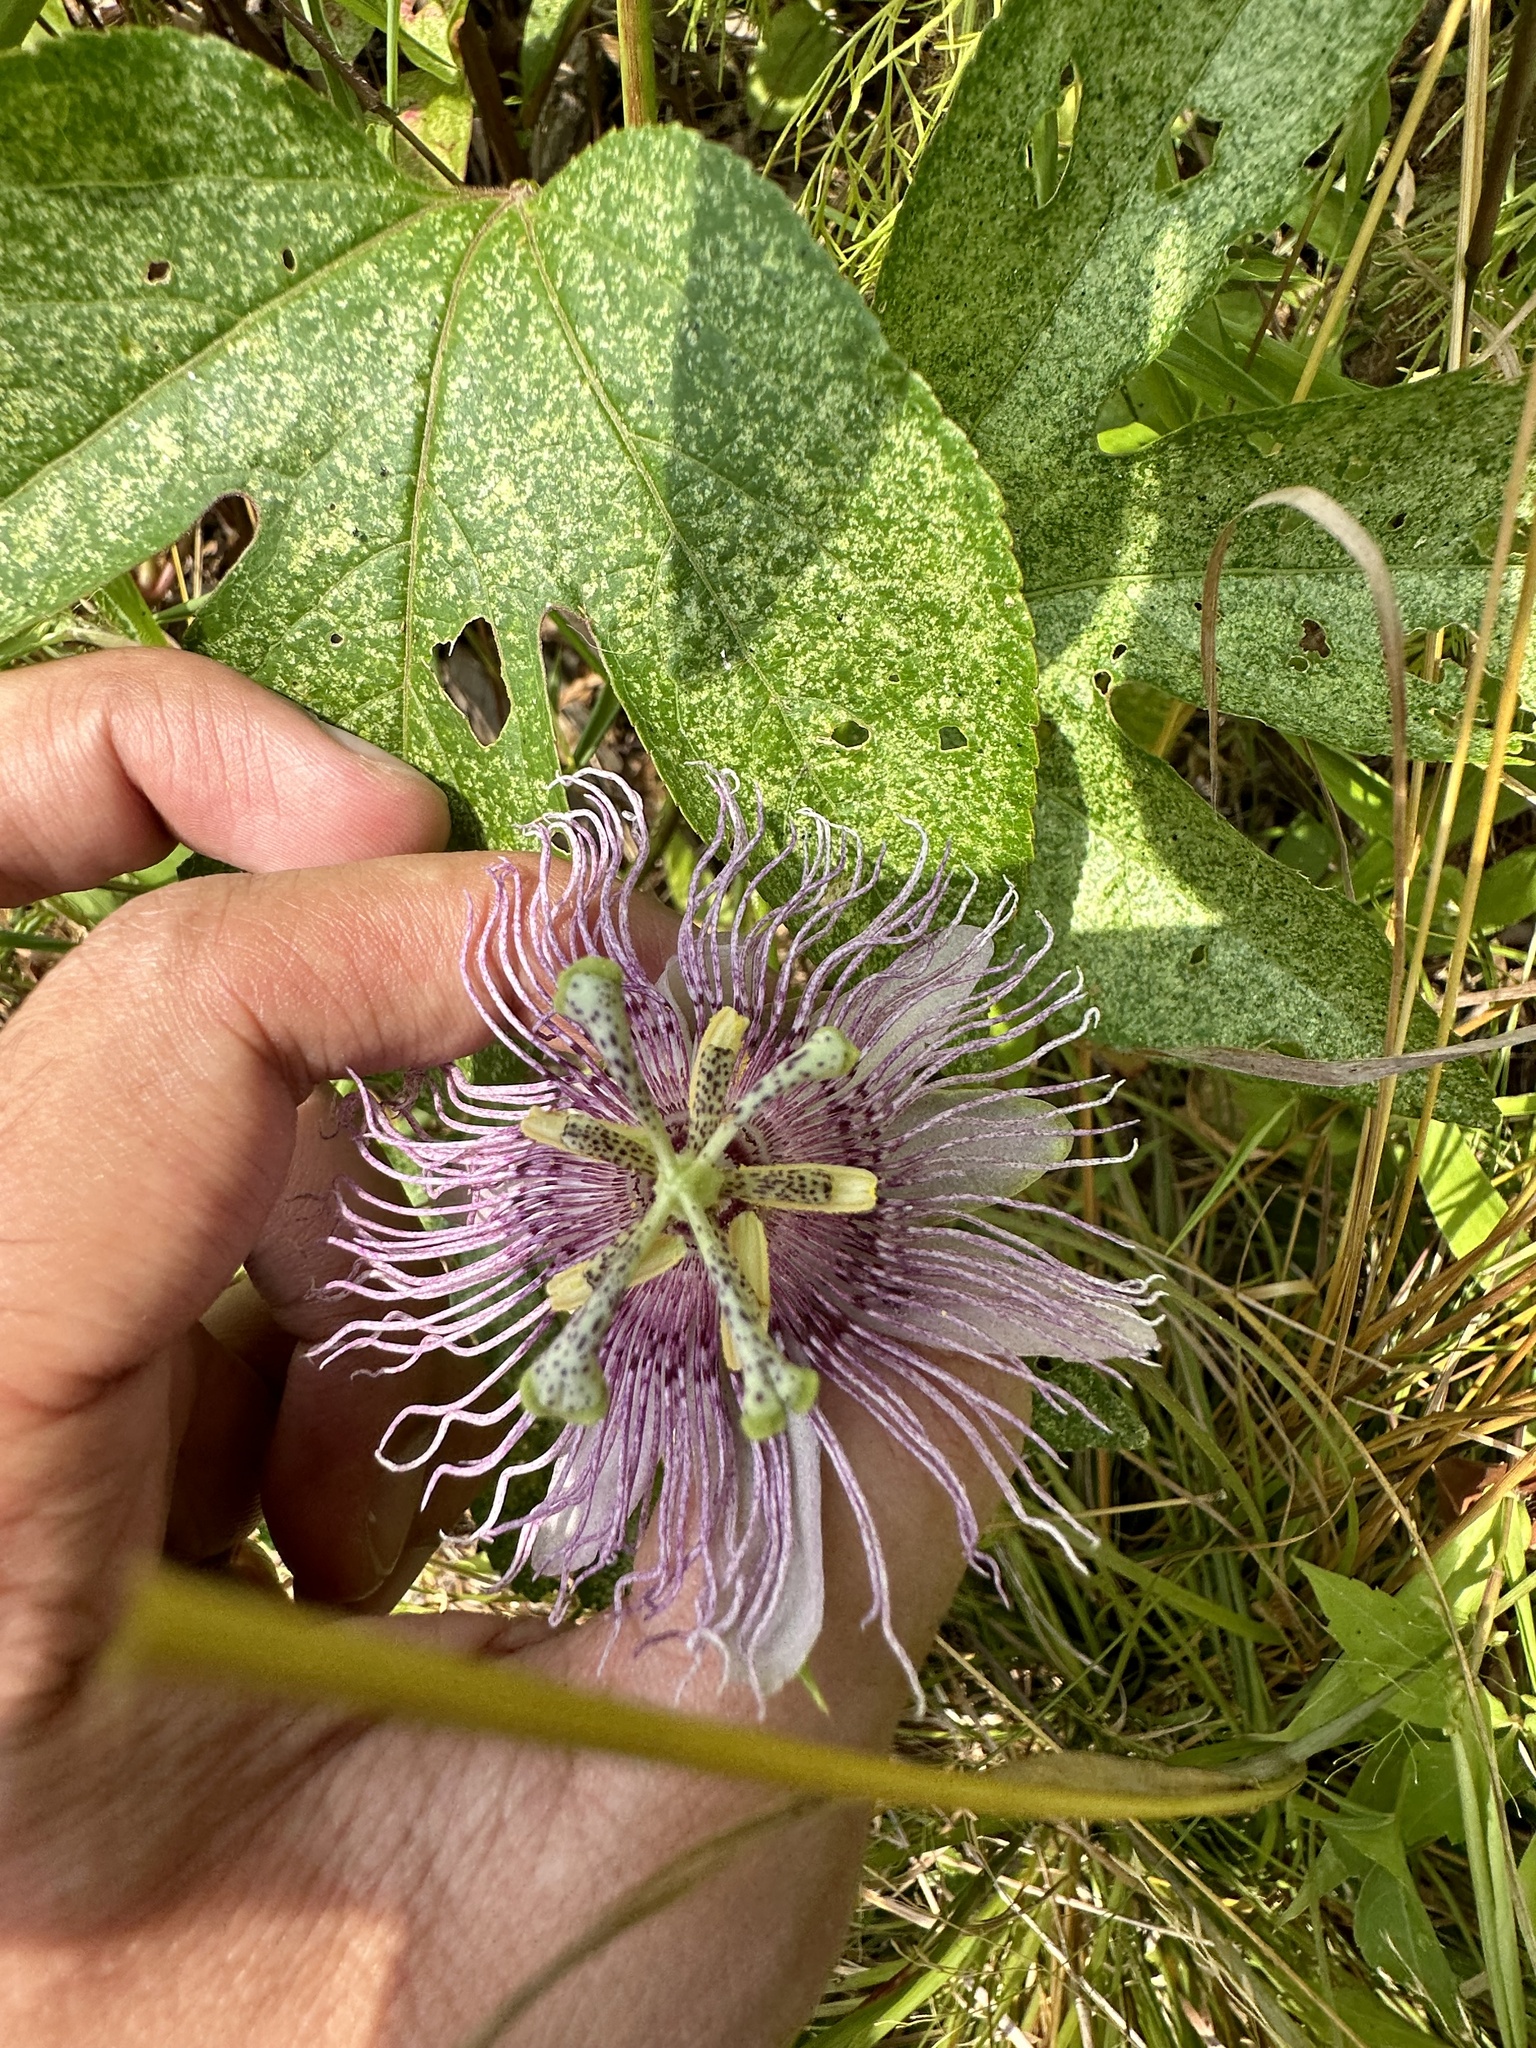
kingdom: Plantae
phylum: Tracheophyta
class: Magnoliopsida
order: Malpighiales
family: Passifloraceae
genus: Passiflora
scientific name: Passiflora incarnata
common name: Apricot-vine
